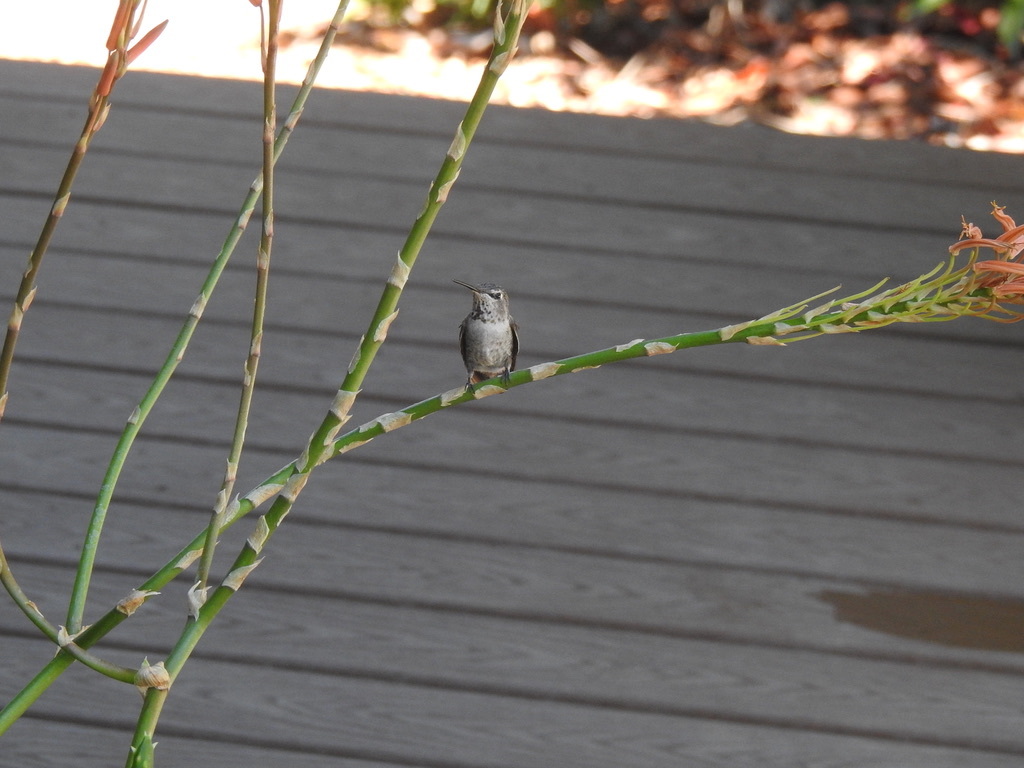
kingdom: Animalia
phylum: Chordata
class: Aves
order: Apodiformes
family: Trochilidae
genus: Calypte
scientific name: Calypte anna
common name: Anna's hummingbird
